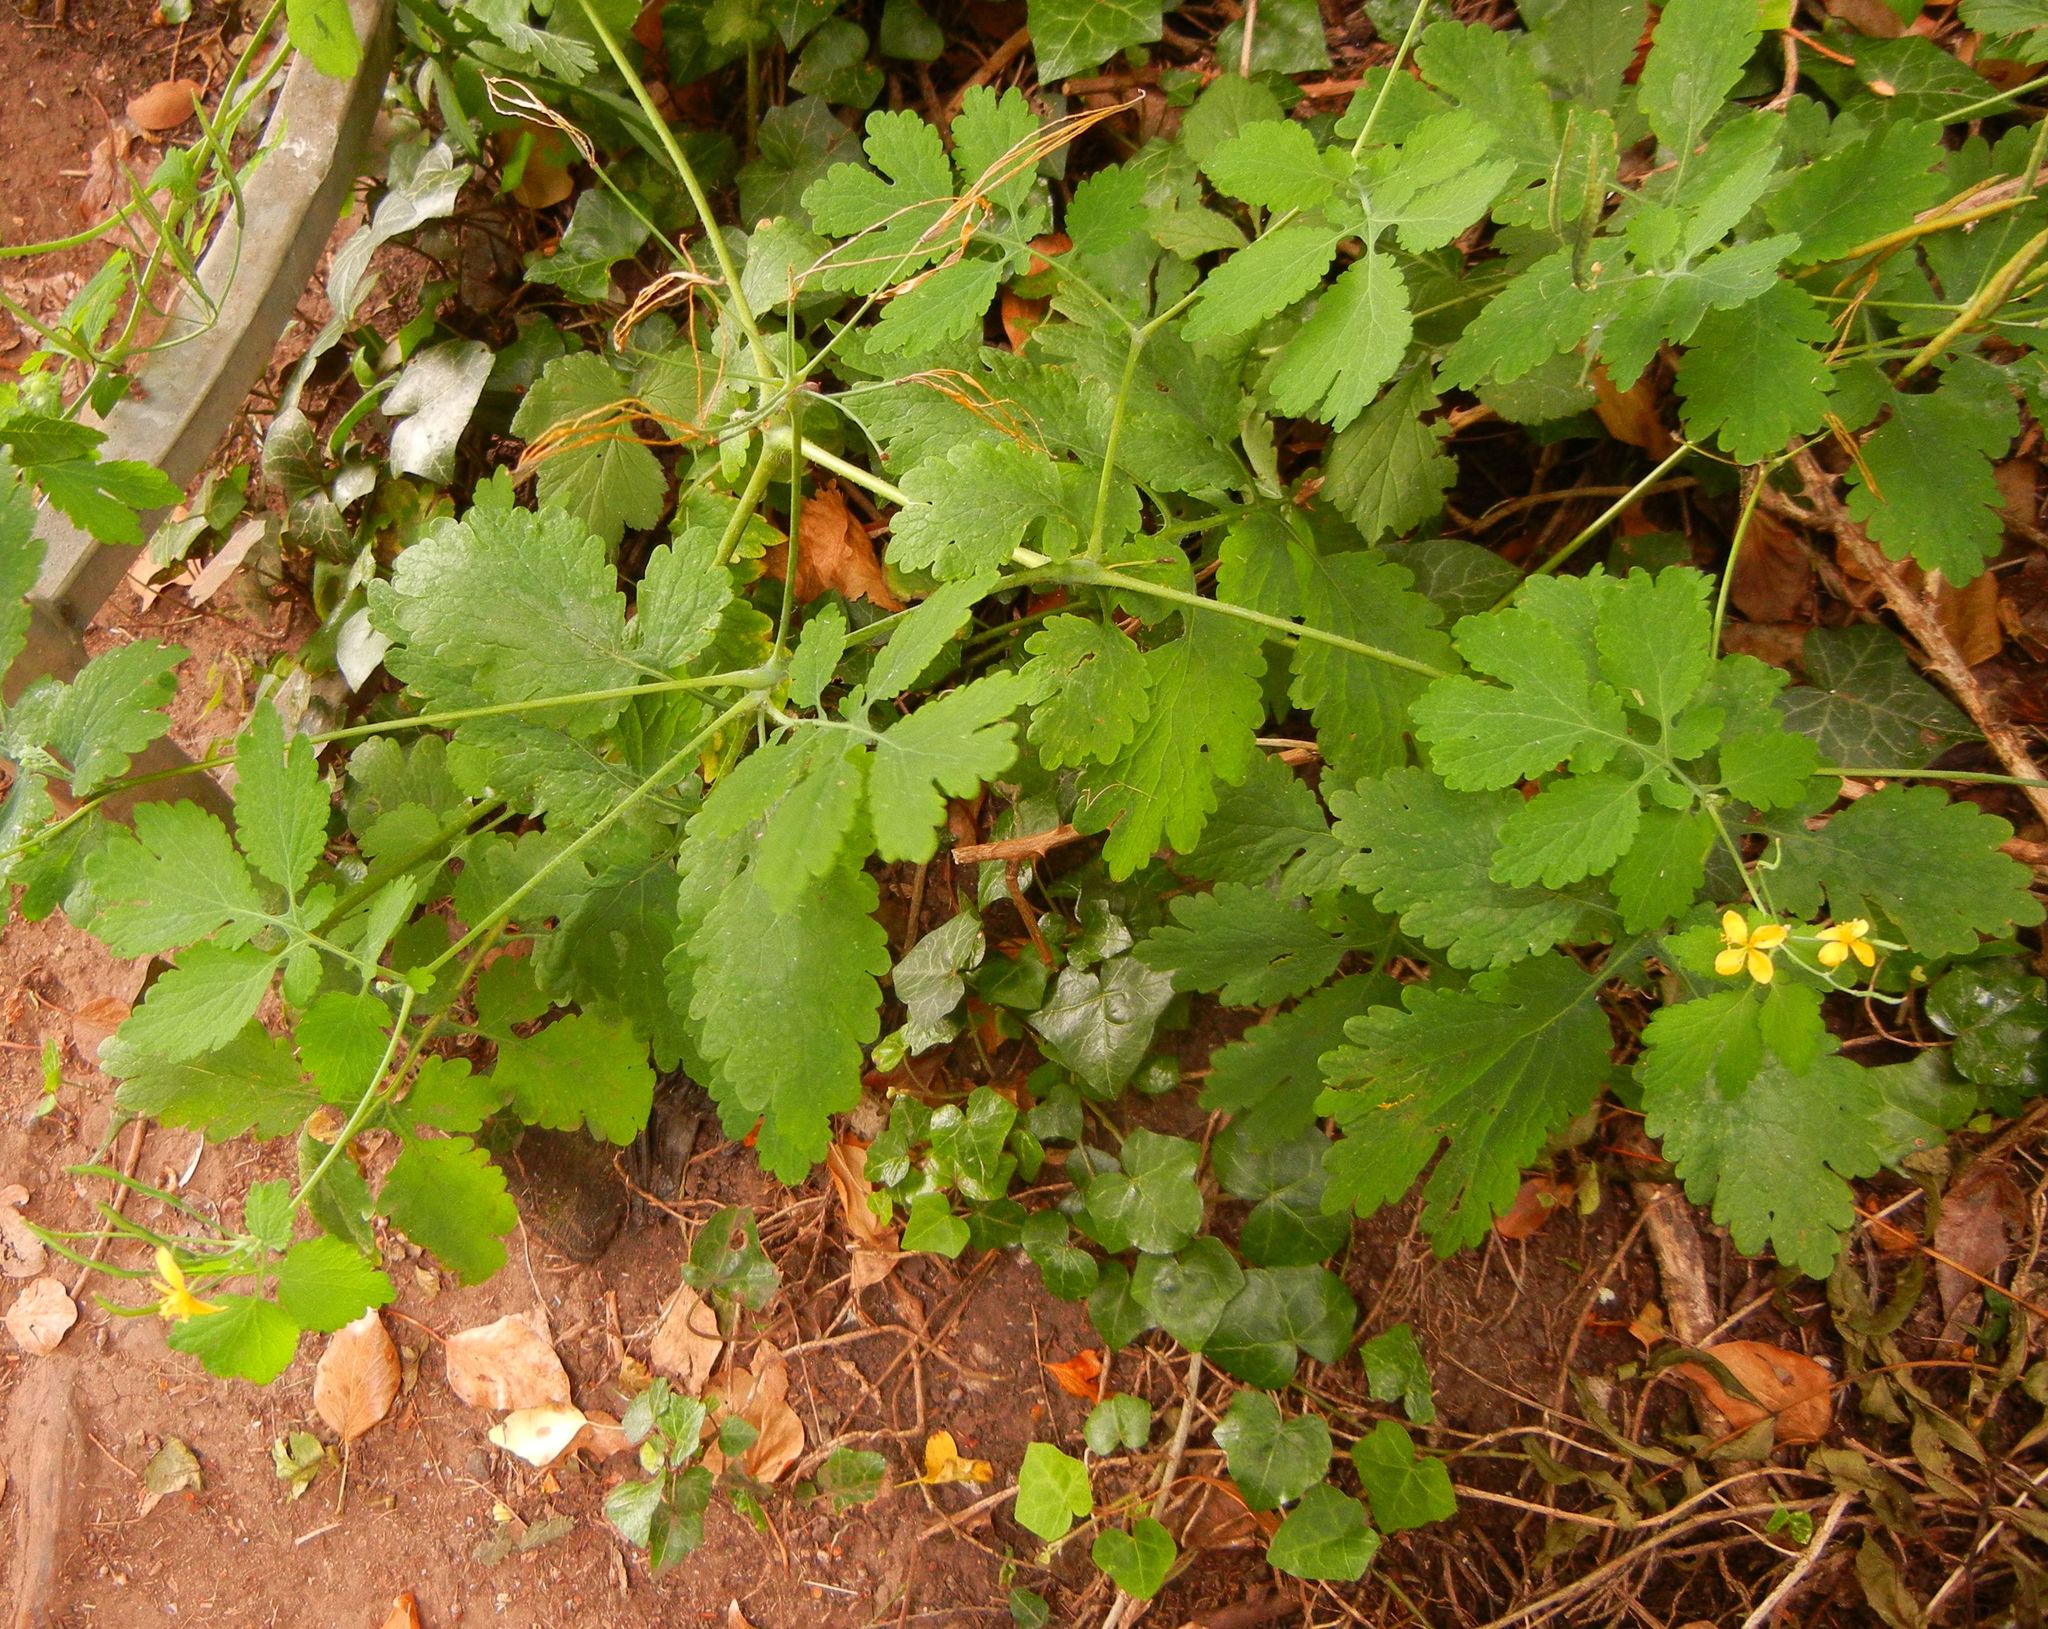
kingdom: Plantae
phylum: Tracheophyta
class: Magnoliopsida
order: Ranunculales
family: Papaveraceae
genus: Chelidonium
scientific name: Chelidonium majus
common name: Greater celandine
